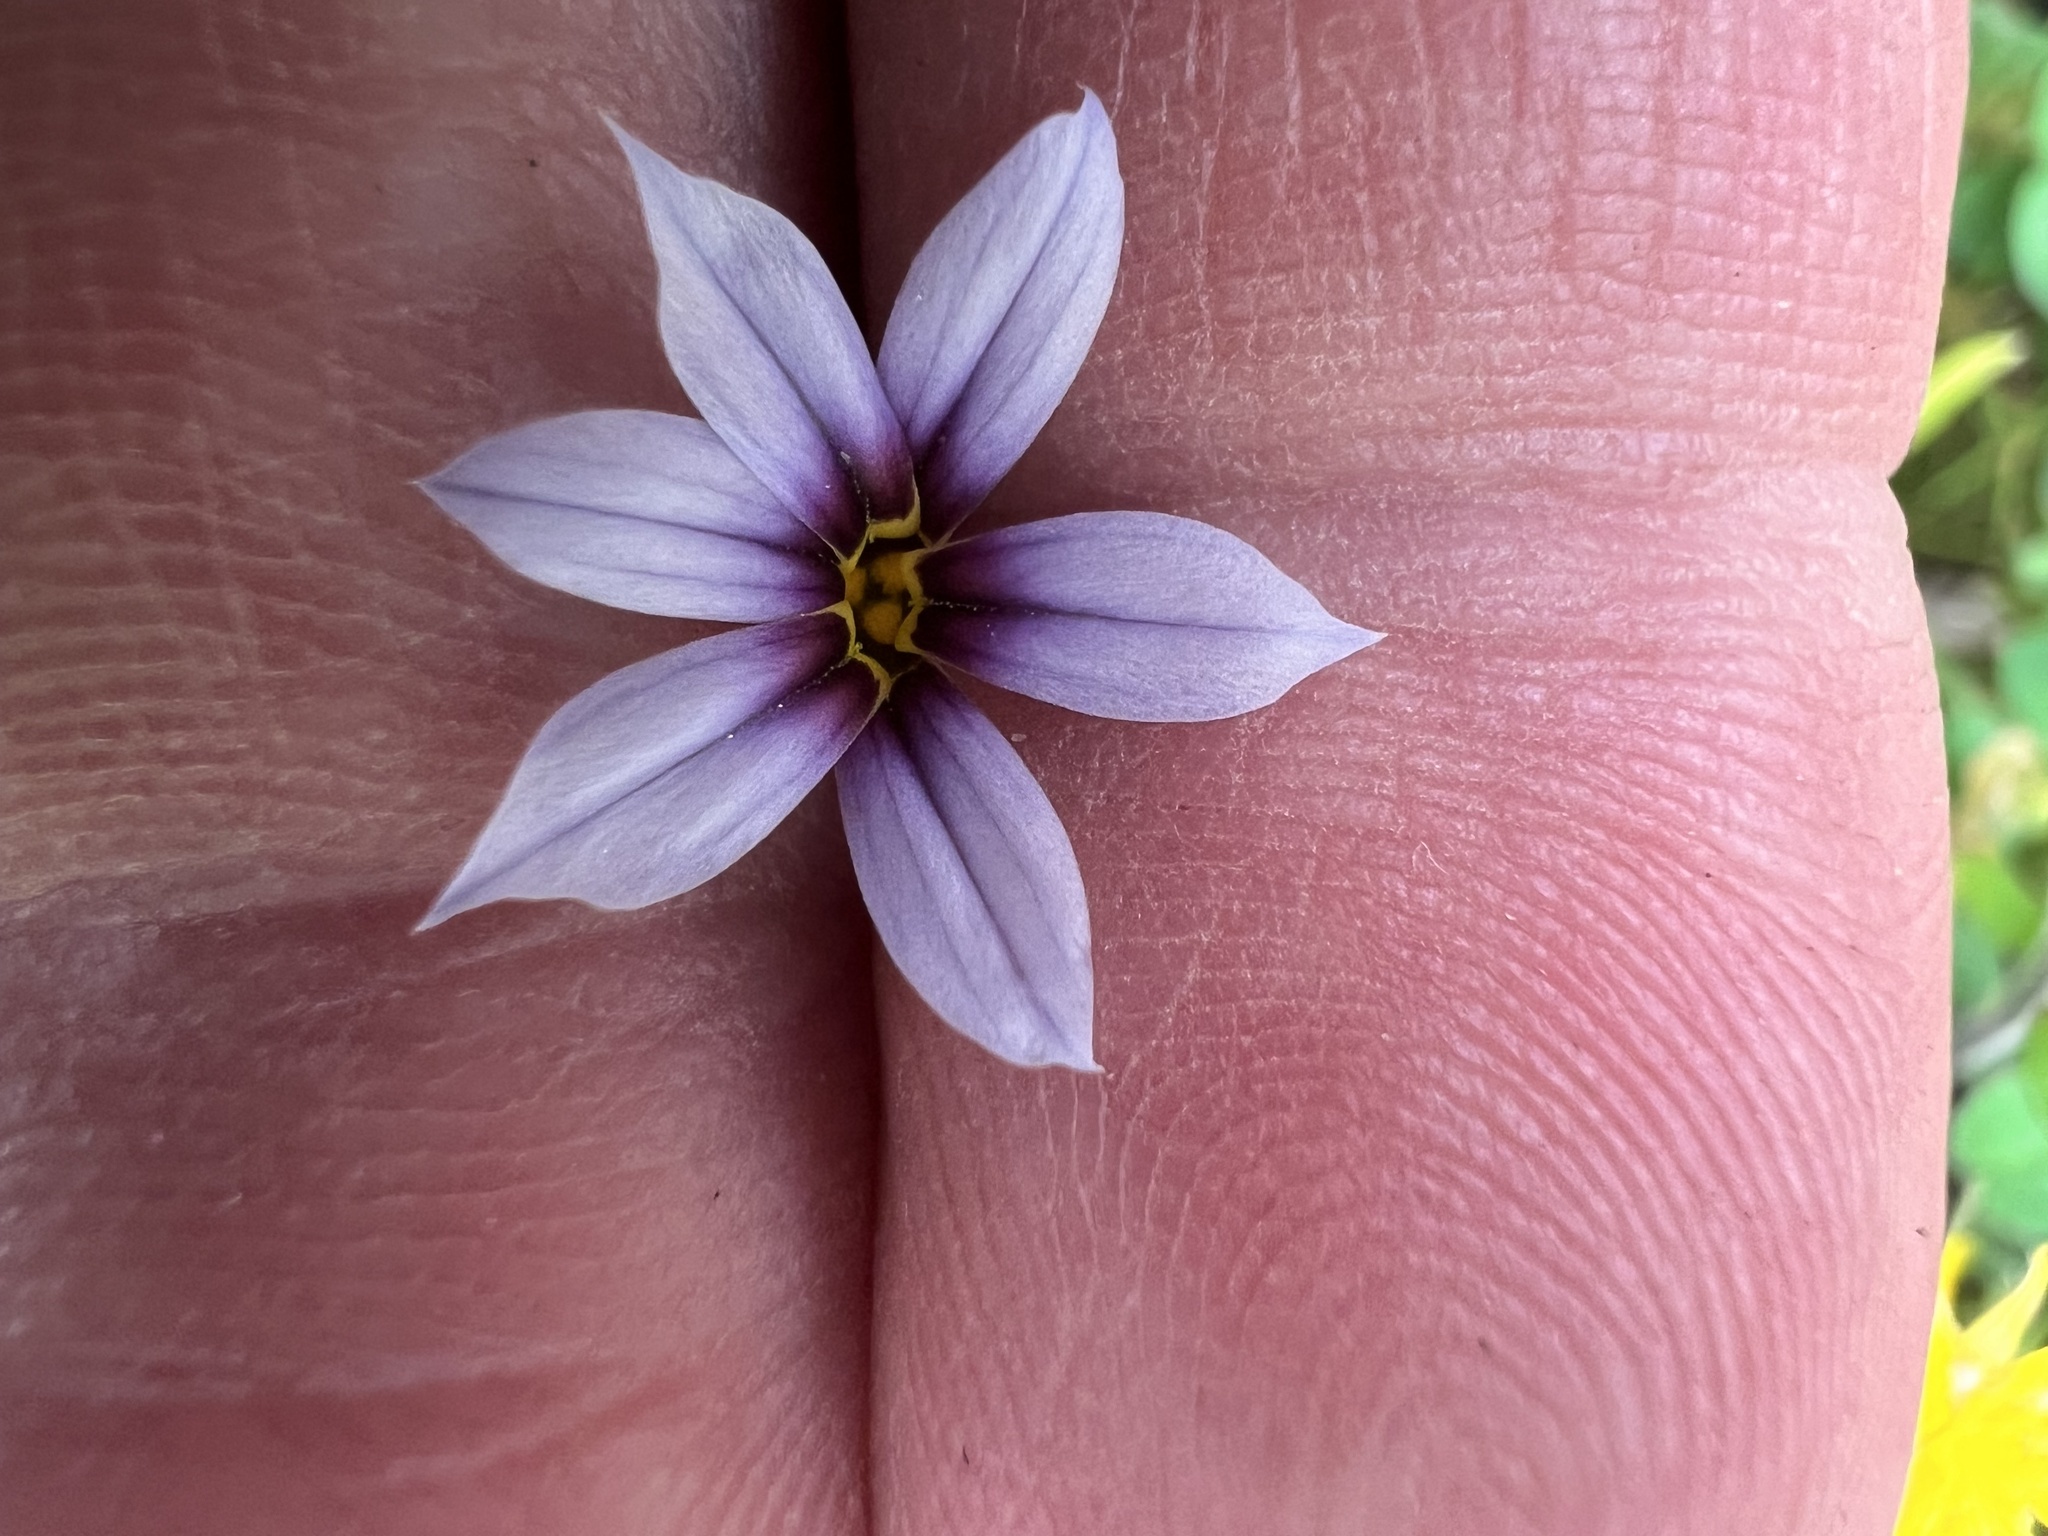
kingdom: Plantae
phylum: Tracheophyta
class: Liliopsida
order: Asparagales
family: Iridaceae
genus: Sisyrinchium
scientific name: Sisyrinchium micranthum
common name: Bermuda pigroot
